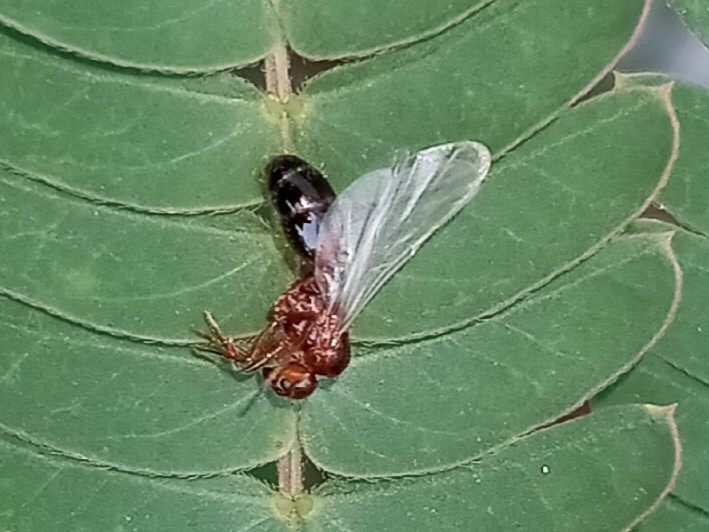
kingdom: Animalia
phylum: Arthropoda
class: Insecta
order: Hymenoptera
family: Formicidae
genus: Solenopsis
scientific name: Solenopsis invicta
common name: Red imported fire ant
